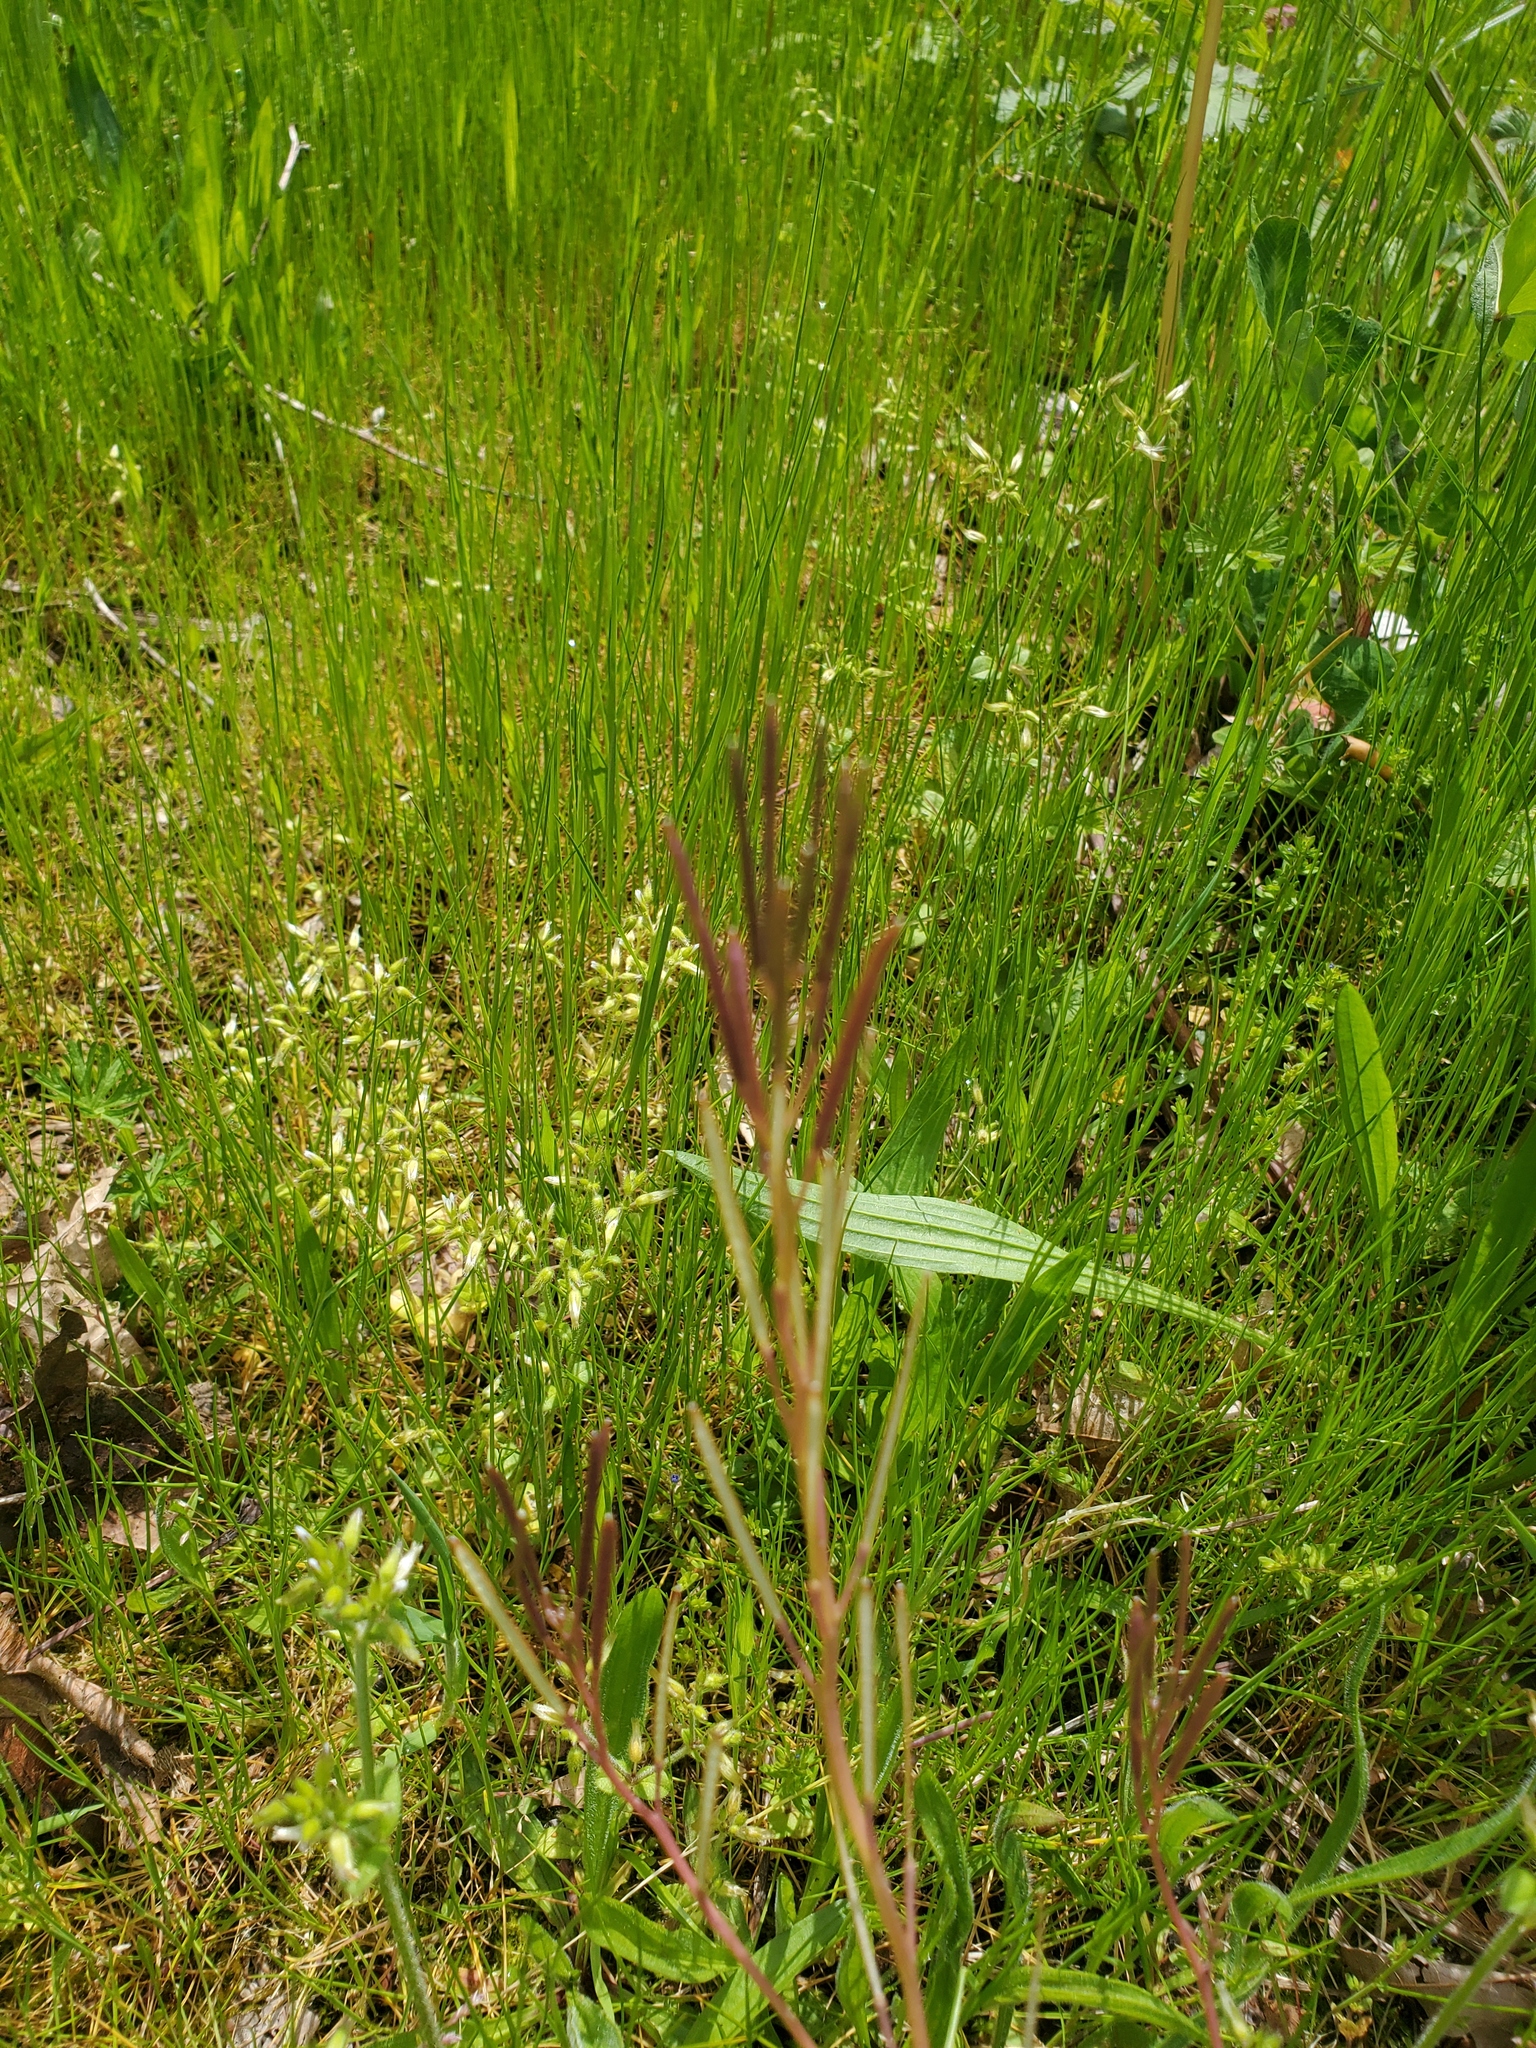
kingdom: Plantae
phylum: Tracheophyta
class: Magnoliopsida
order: Brassicales
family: Brassicaceae
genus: Cardamine
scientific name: Cardamine hirsuta
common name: Hairy bittercress
